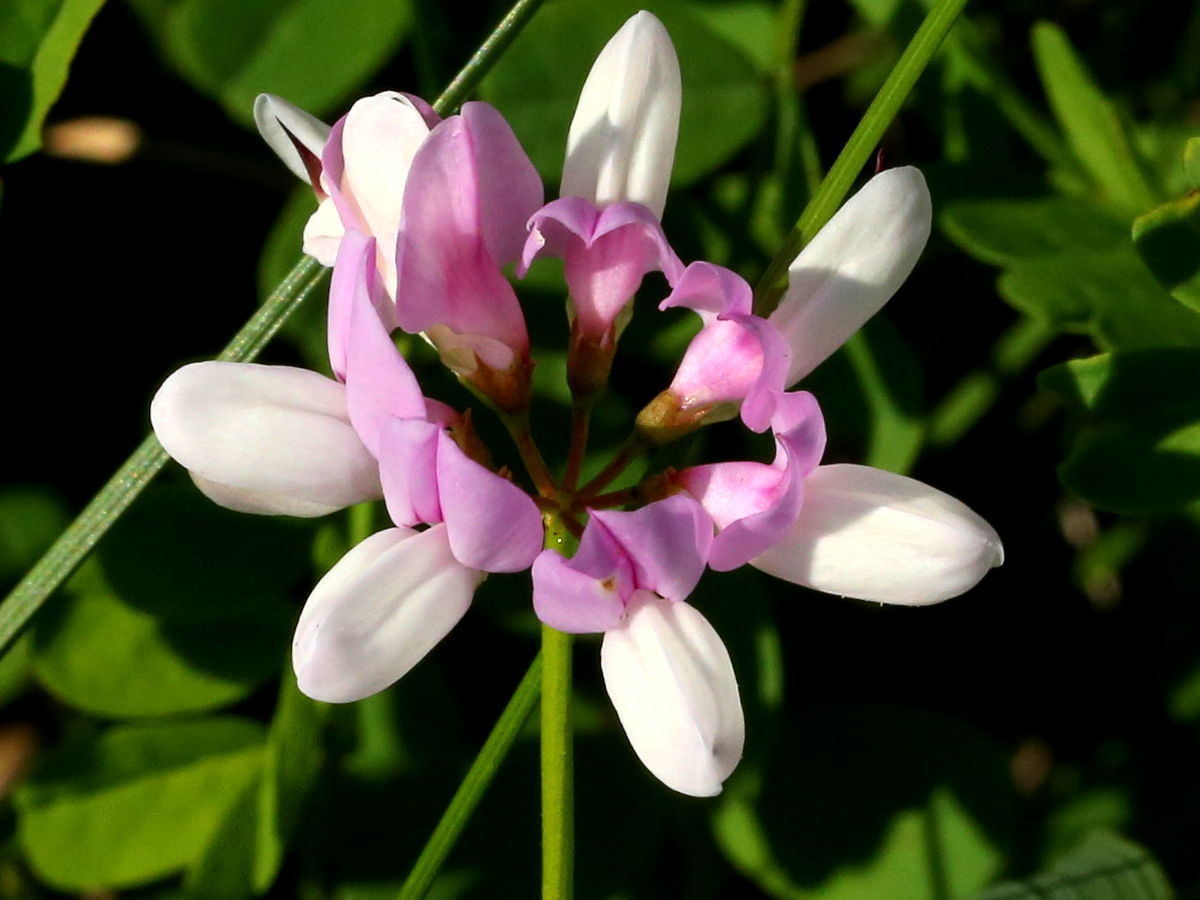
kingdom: Plantae
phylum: Tracheophyta
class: Magnoliopsida
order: Fabales
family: Fabaceae
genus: Coronilla
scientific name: Coronilla varia
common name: Crownvetch
